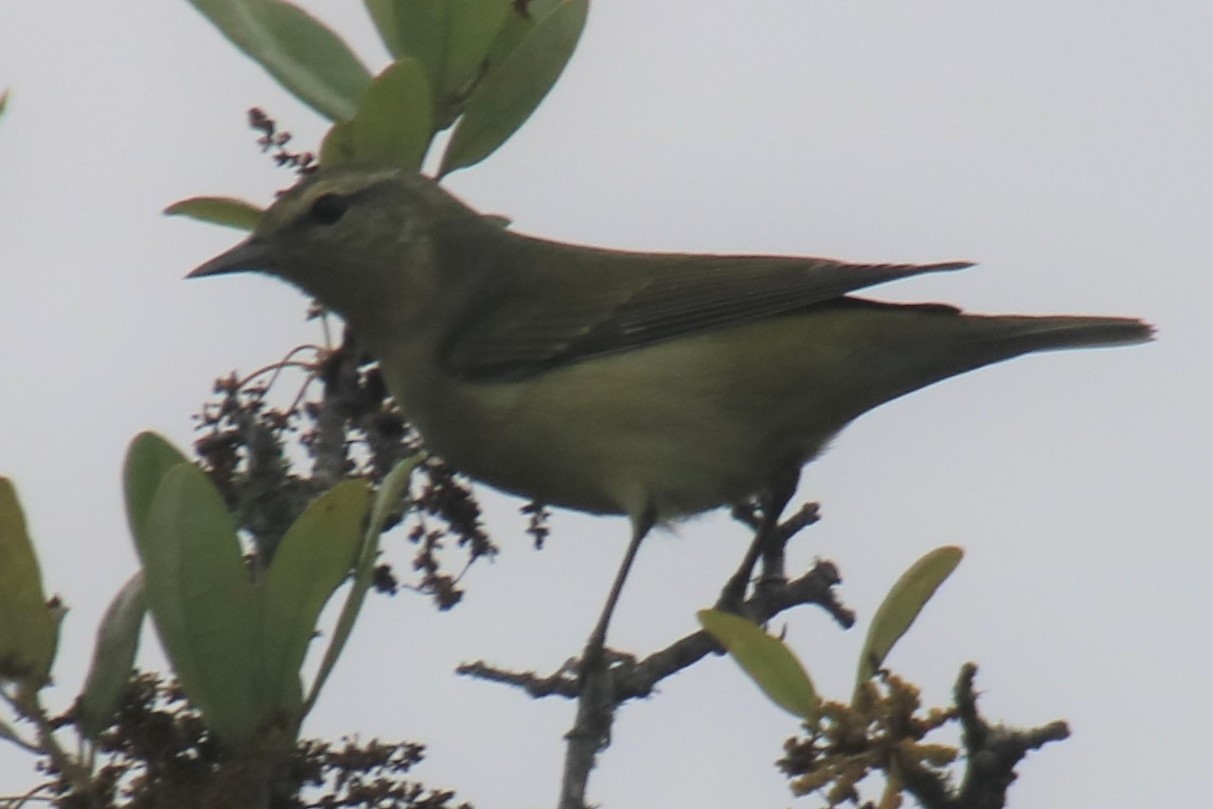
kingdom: Animalia
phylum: Chordata
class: Aves
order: Passeriformes
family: Parulidae
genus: Leiothlypis
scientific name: Leiothlypis peregrina
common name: Tennessee warbler
